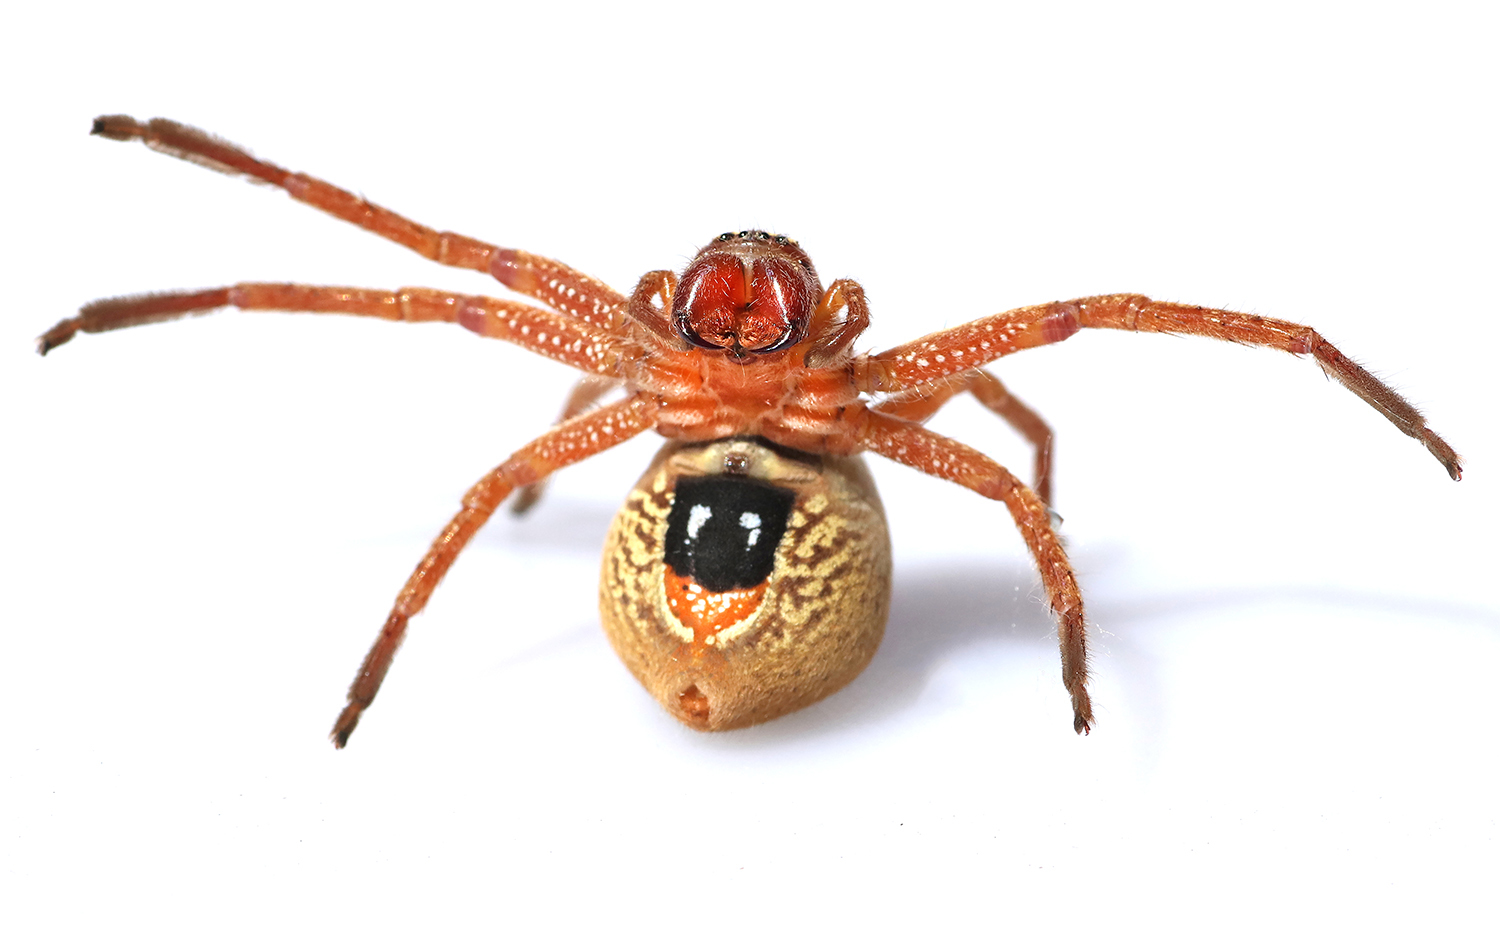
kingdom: Animalia
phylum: Arthropoda
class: Arachnida
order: Araneae
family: Sparassidae
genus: Neosparassus
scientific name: Neosparassus diana
